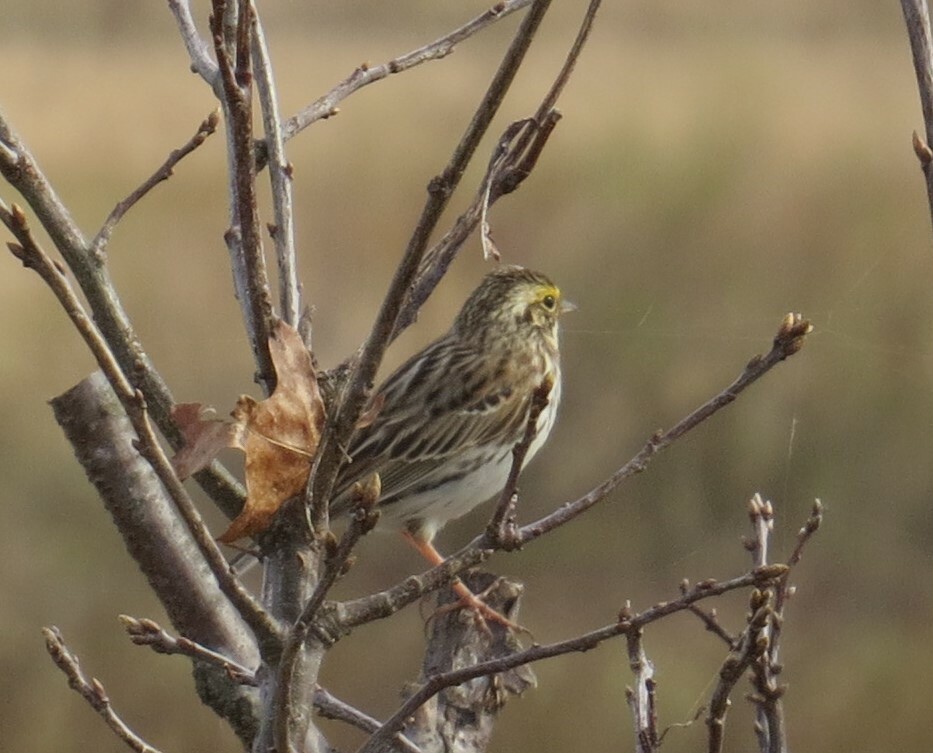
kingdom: Animalia
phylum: Chordata
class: Aves
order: Passeriformes
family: Passerellidae
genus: Passerculus
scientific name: Passerculus sandwichensis
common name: Savannah sparrow
